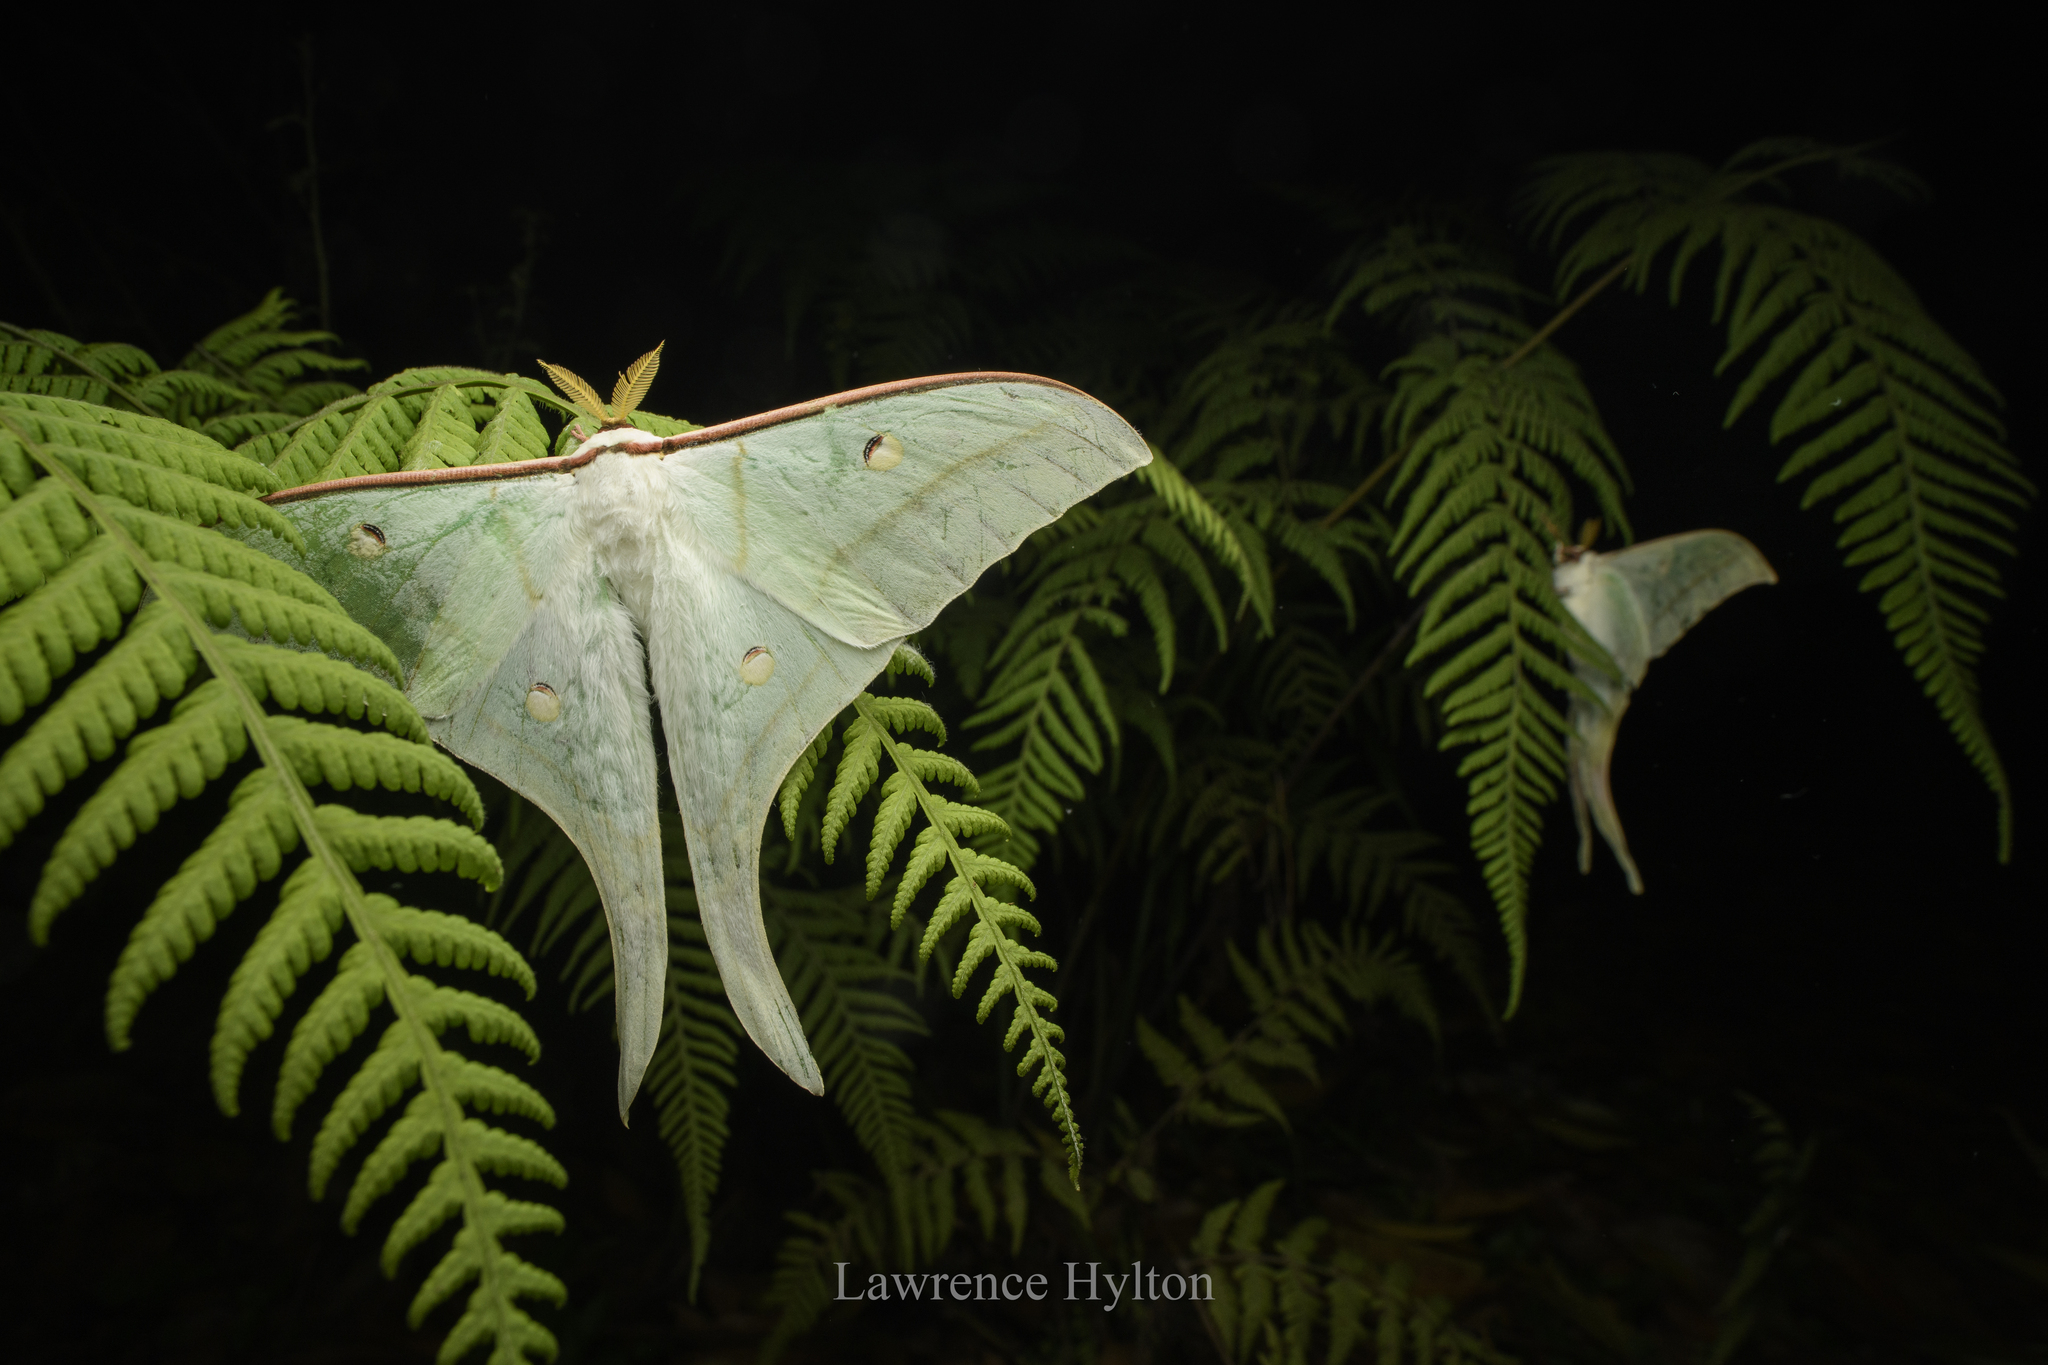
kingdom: Animalia
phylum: Arthropoda
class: Insecta
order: Lepidoptera
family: Saturniidae
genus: Actias
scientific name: Actias ningpoana
